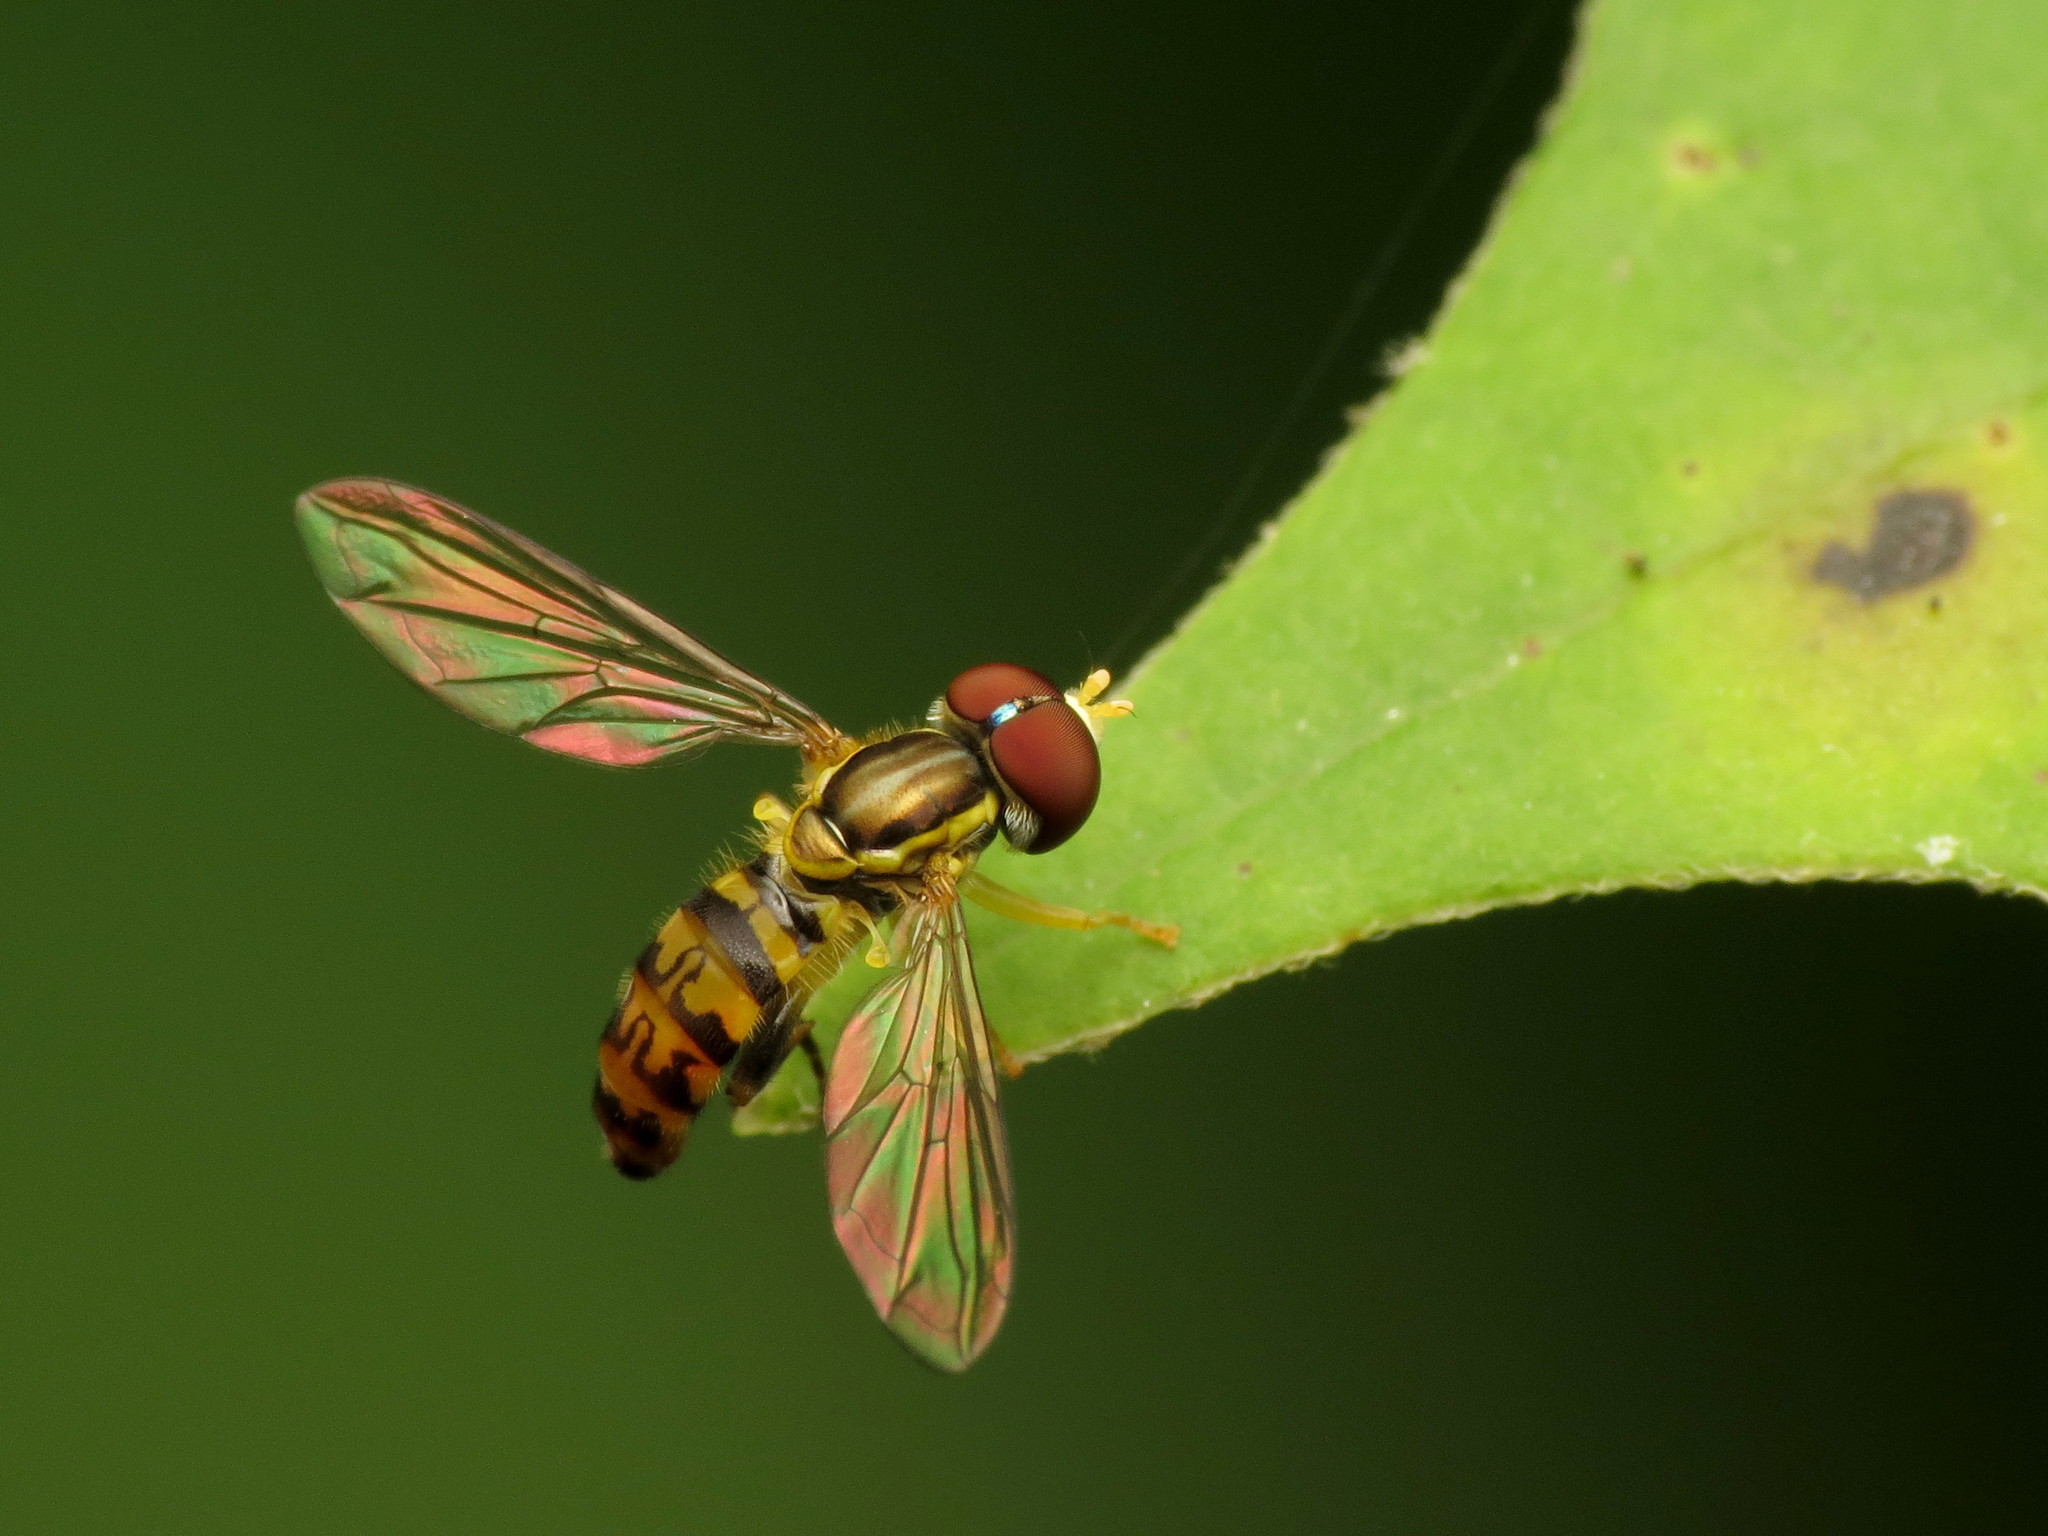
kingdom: Animalia
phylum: Arthropoda
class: Insecta
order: Diptera
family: Syrphidae
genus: Toxomerus
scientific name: Toxomerus geminatus
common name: Eastern calligrapher
